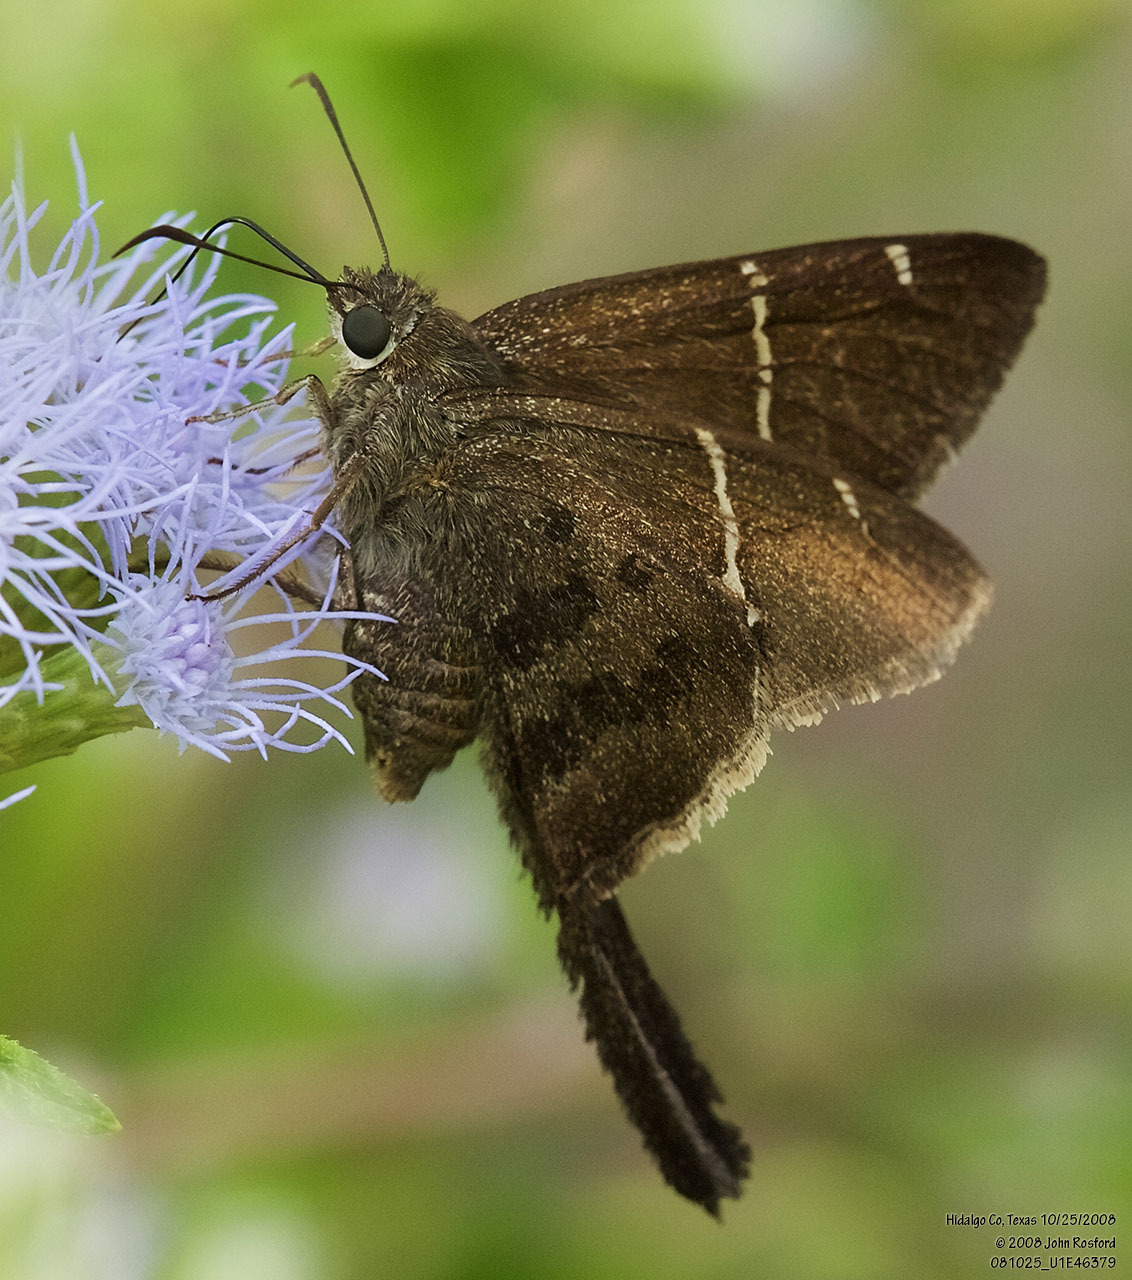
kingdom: Animalia
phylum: Arthropoda
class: Insecta
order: Lepidoptera
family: Hesperiidae
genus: Urbanus
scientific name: Urbanus procne
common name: Brown longtail
